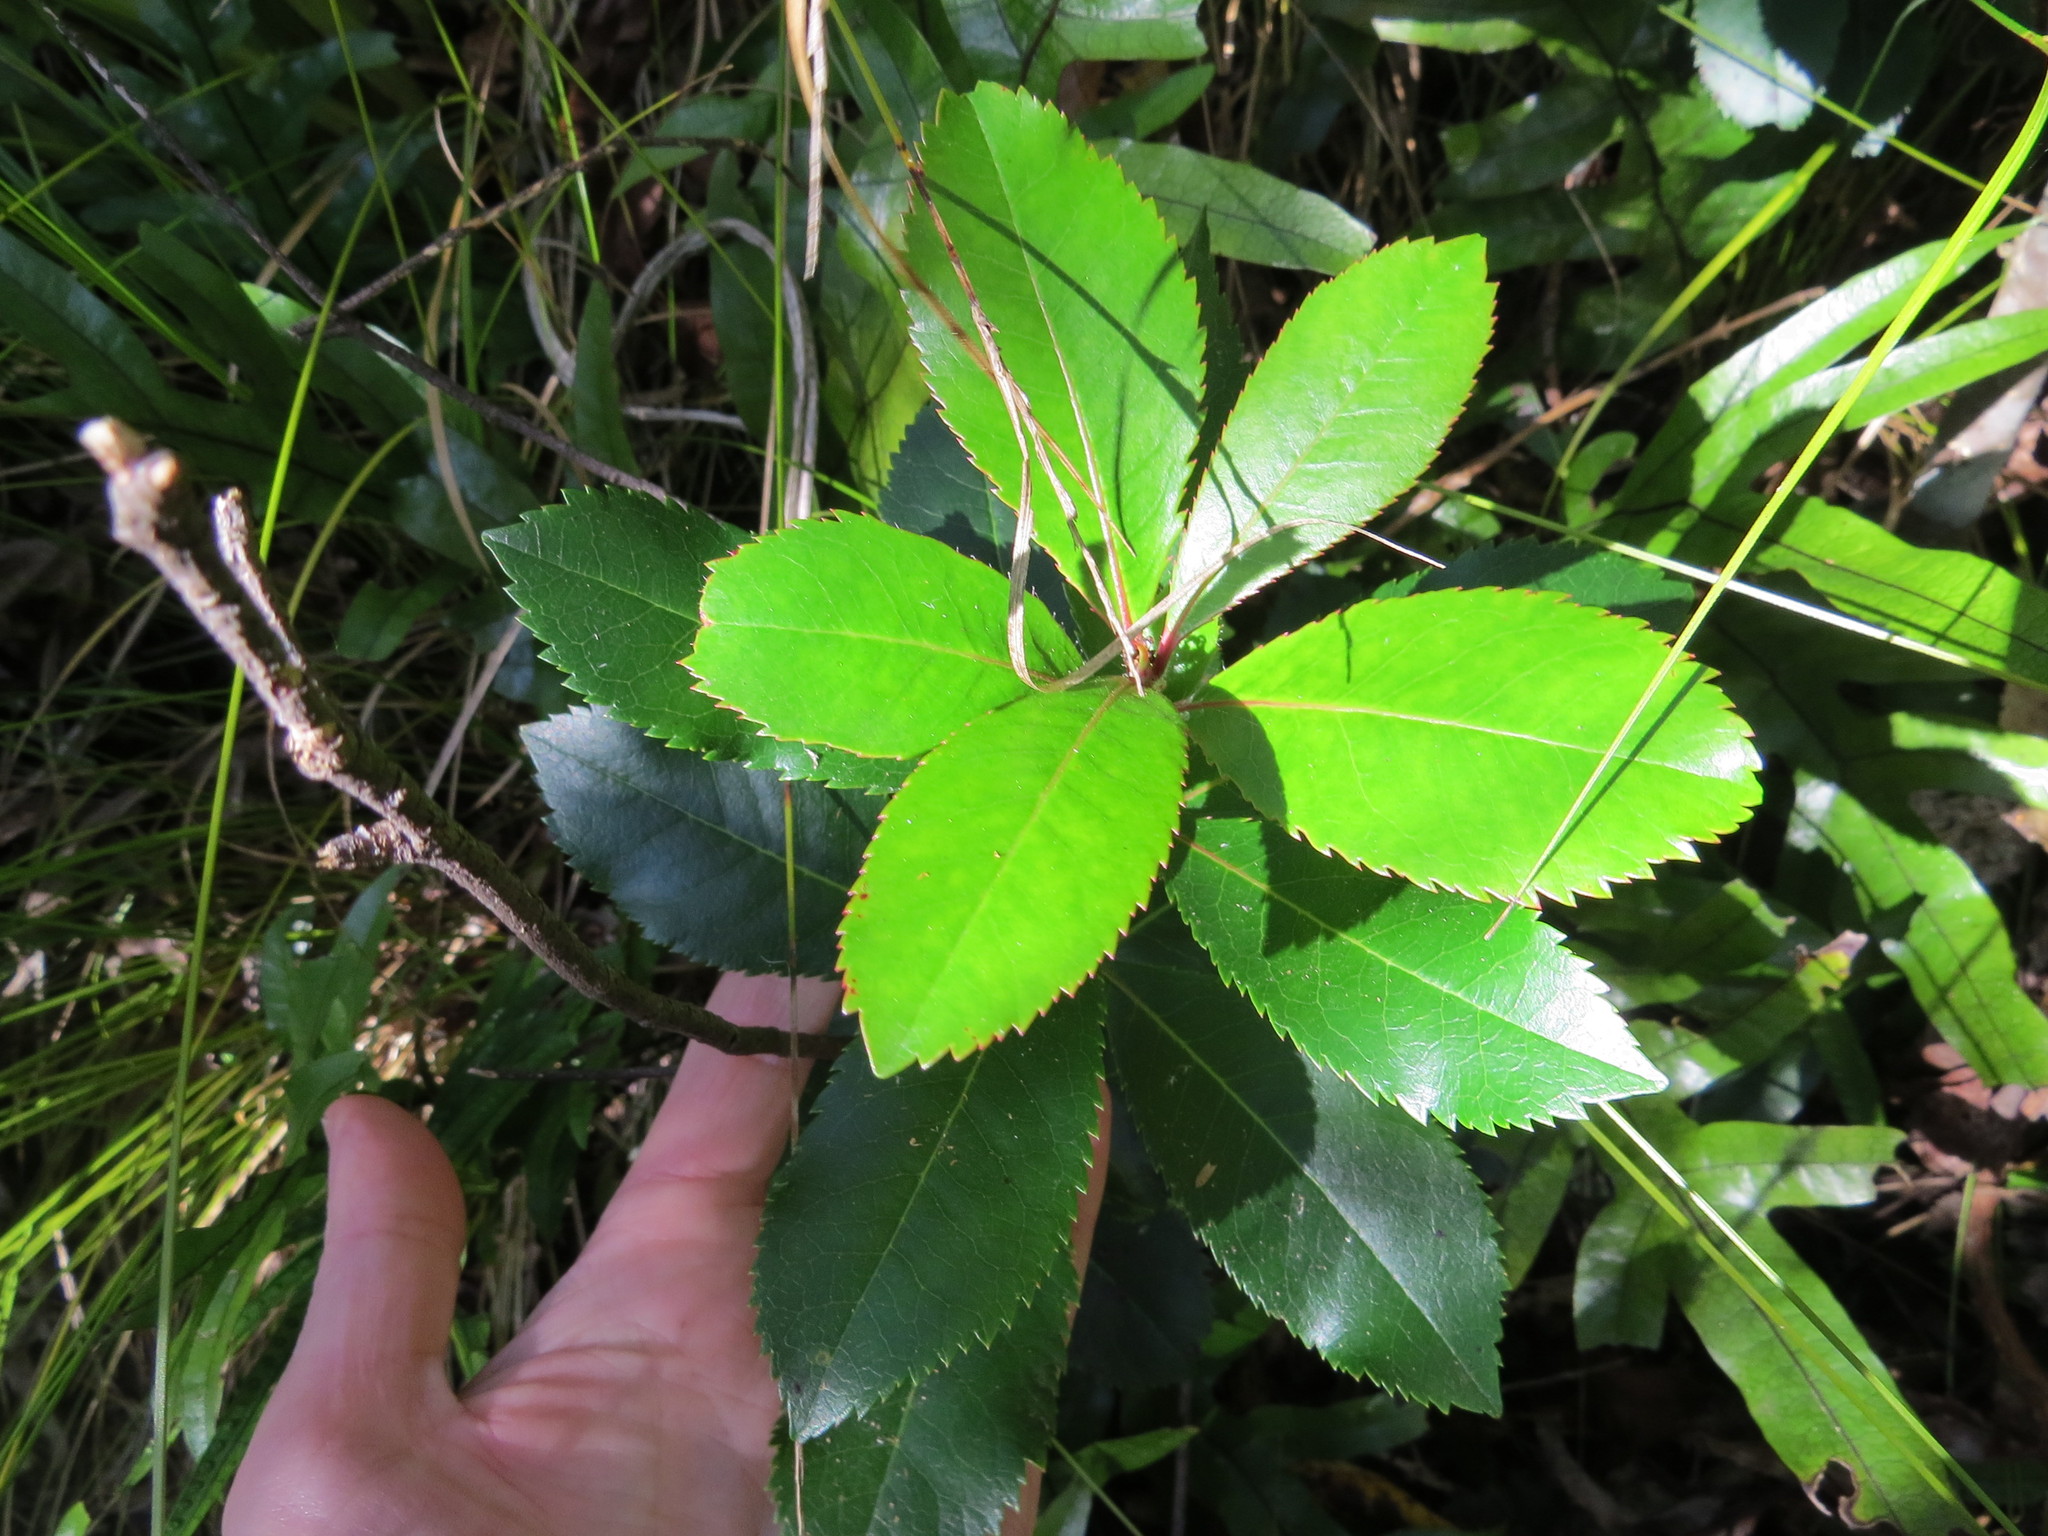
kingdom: Plantae
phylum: Tracheophyta
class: Magnoliopsida
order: Ericales
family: Ericaceae
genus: Arbutus
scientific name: Arbutus unedo
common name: Strawberry-tree
